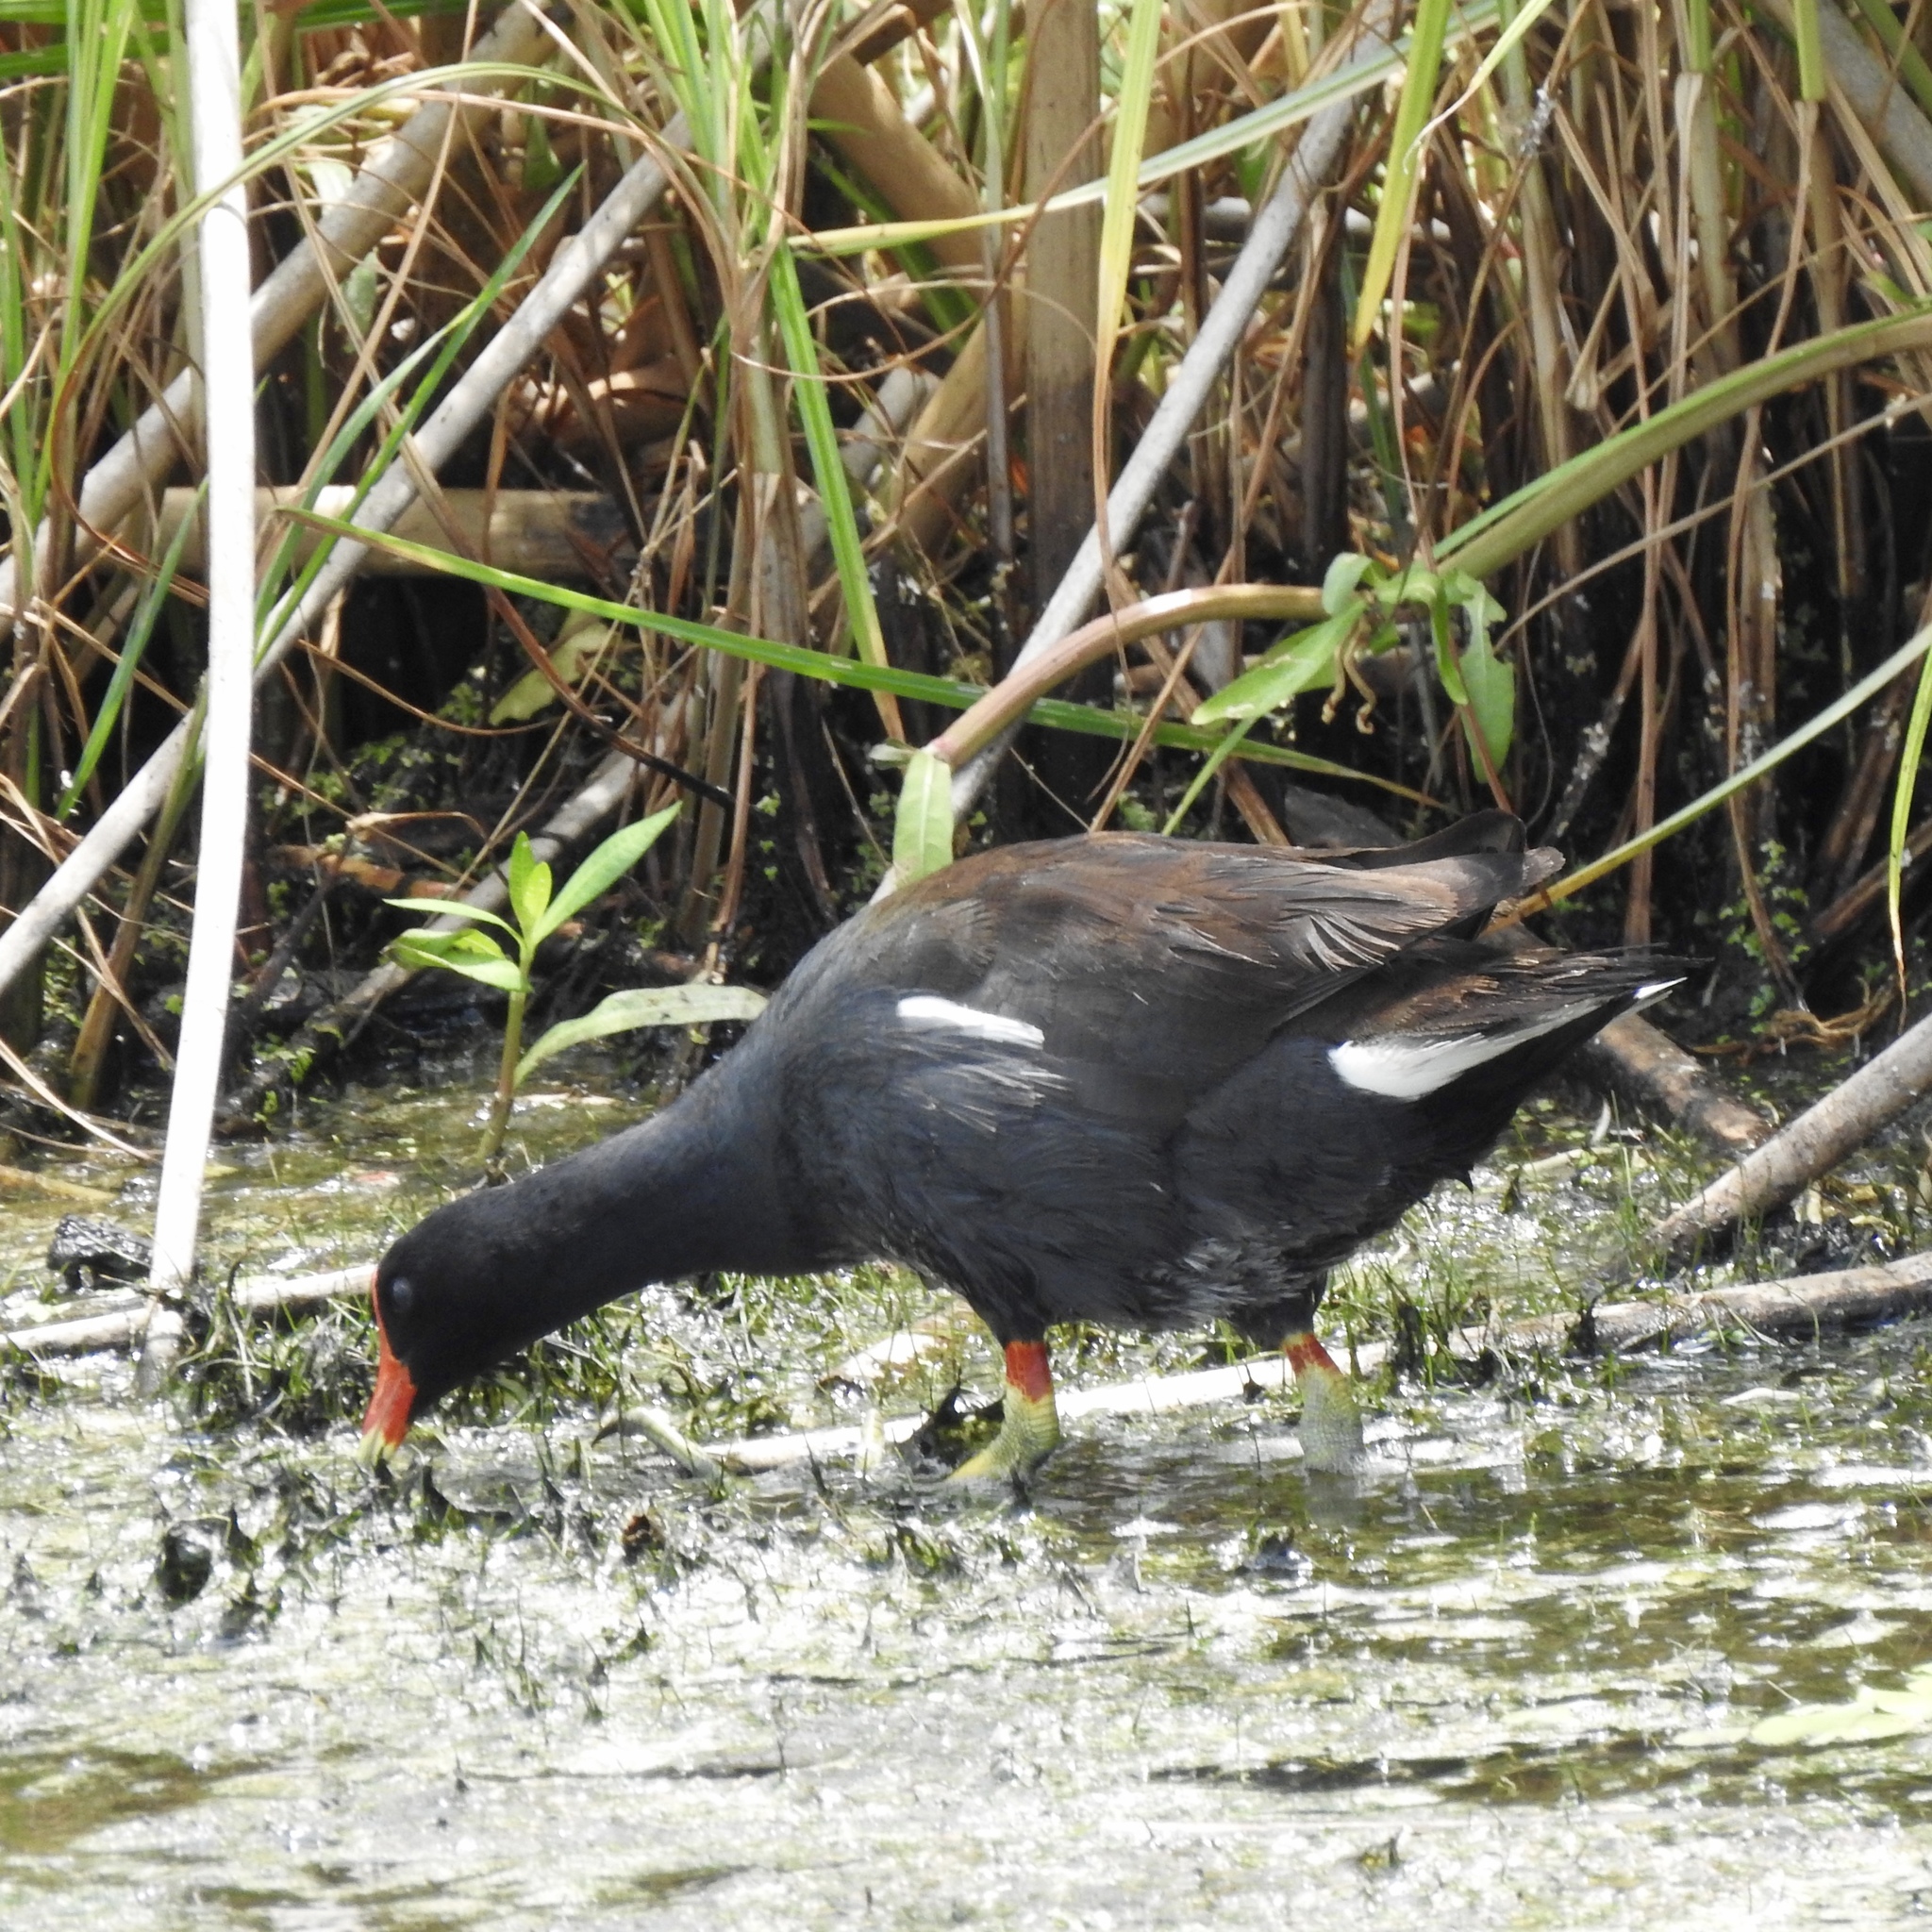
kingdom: Animalia
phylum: Chordata
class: Aves
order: Gruiformes
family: Rallidae
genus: Gallinula
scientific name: Gallinula chloropus
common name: Common moorhen
